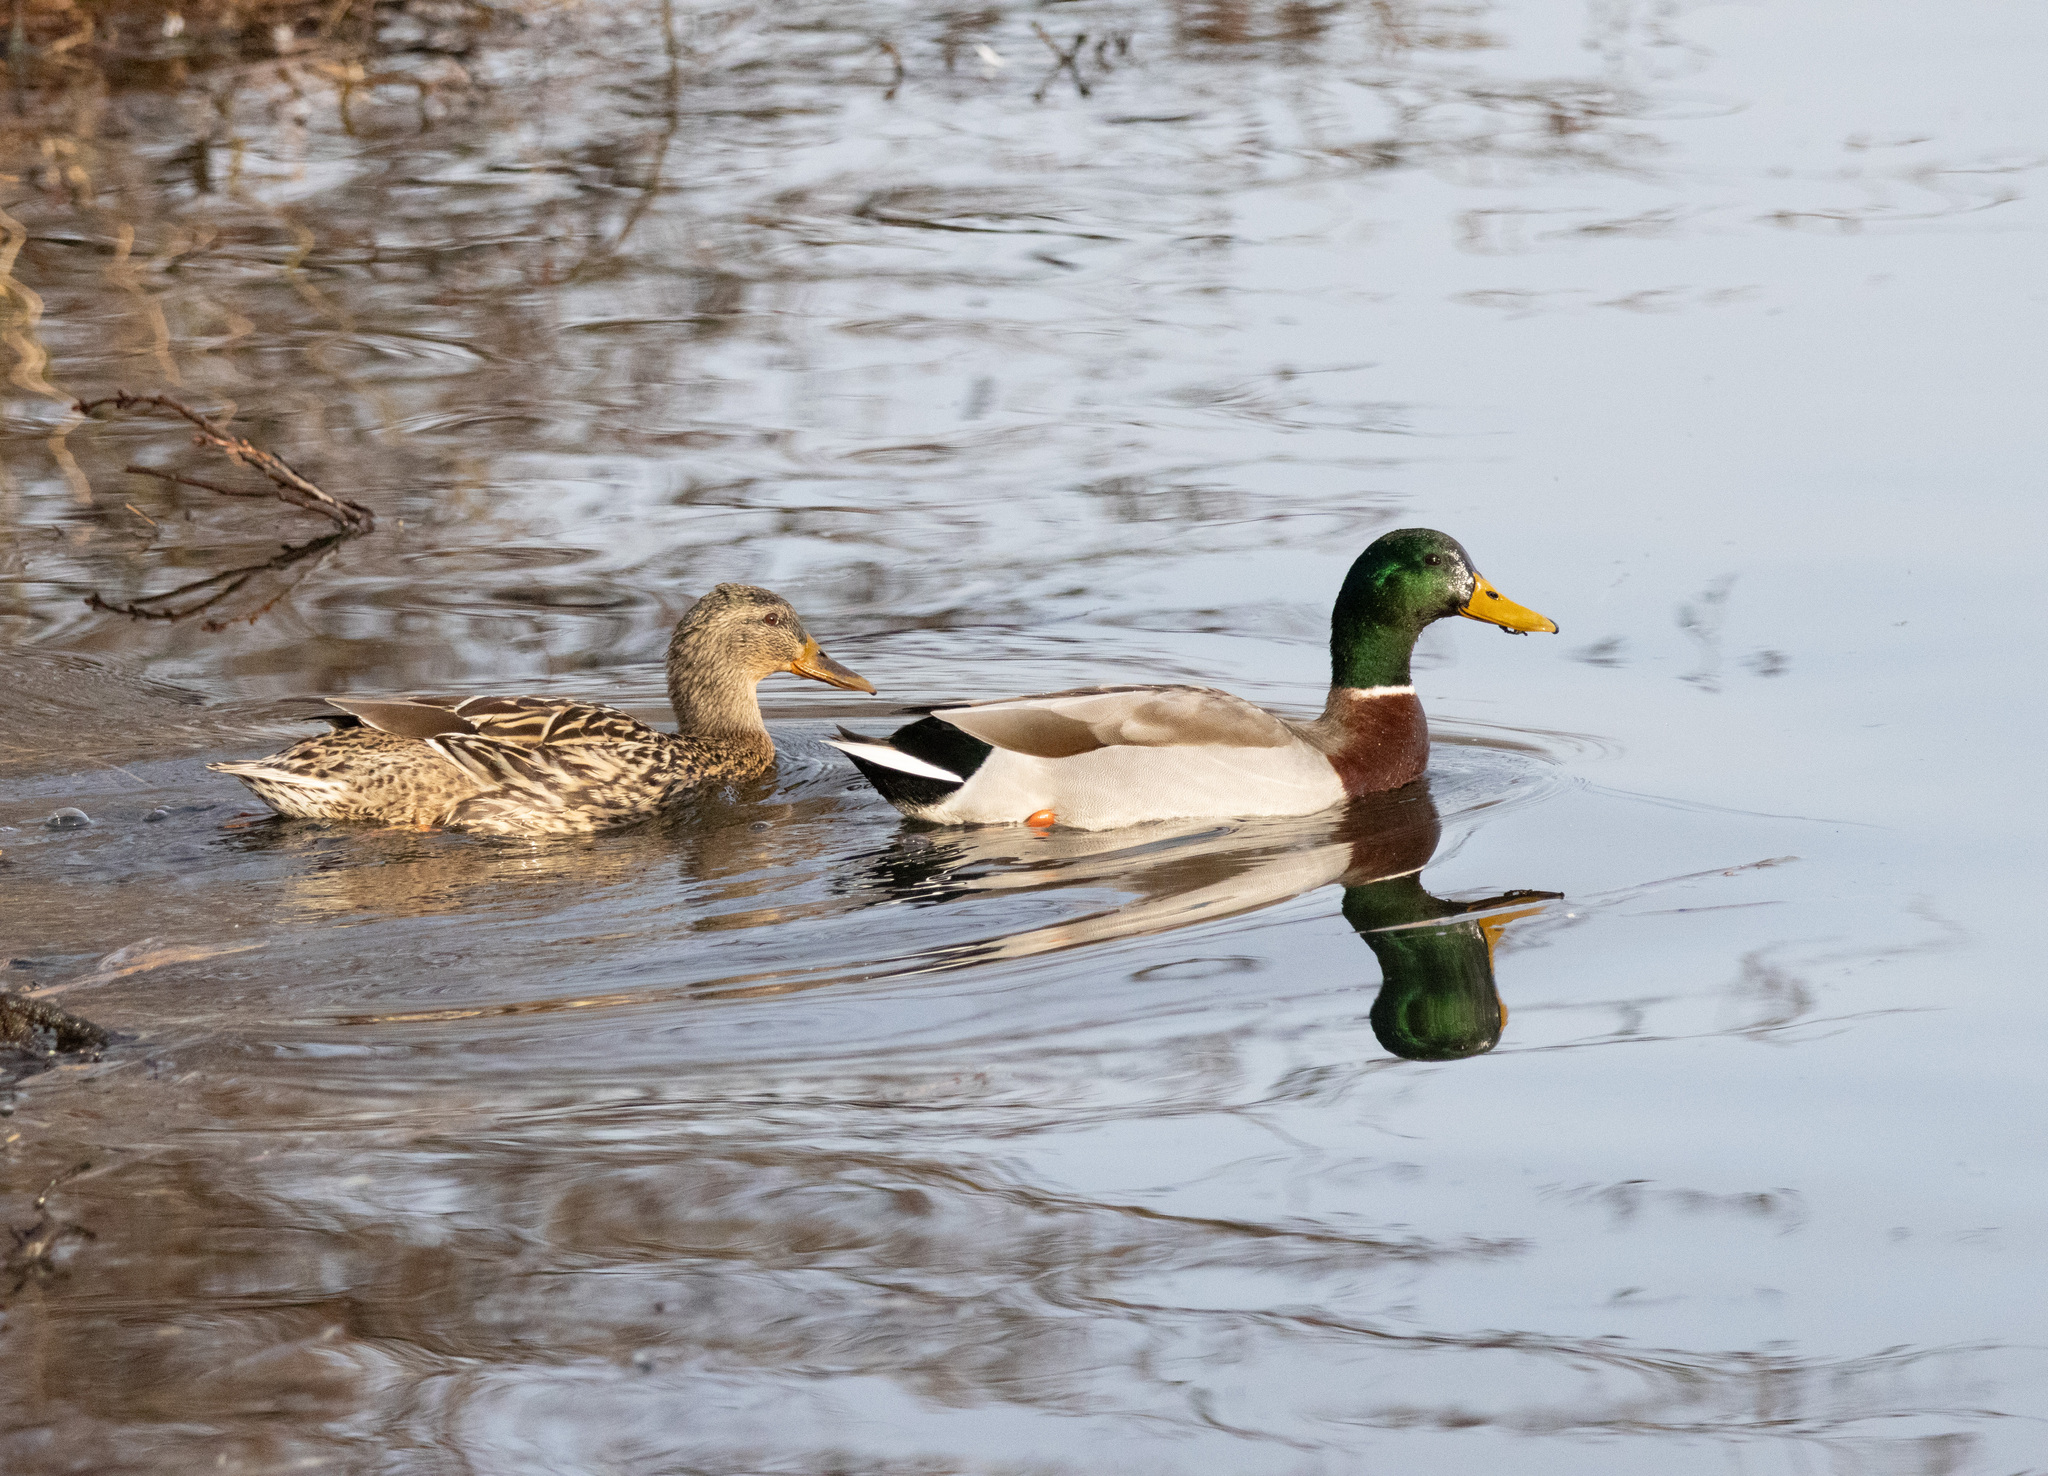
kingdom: Animalia
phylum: Chordata
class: Aves
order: Anseriformes
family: Anatidae
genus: Anas
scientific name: Anas platyrhynchos
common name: Mallard
